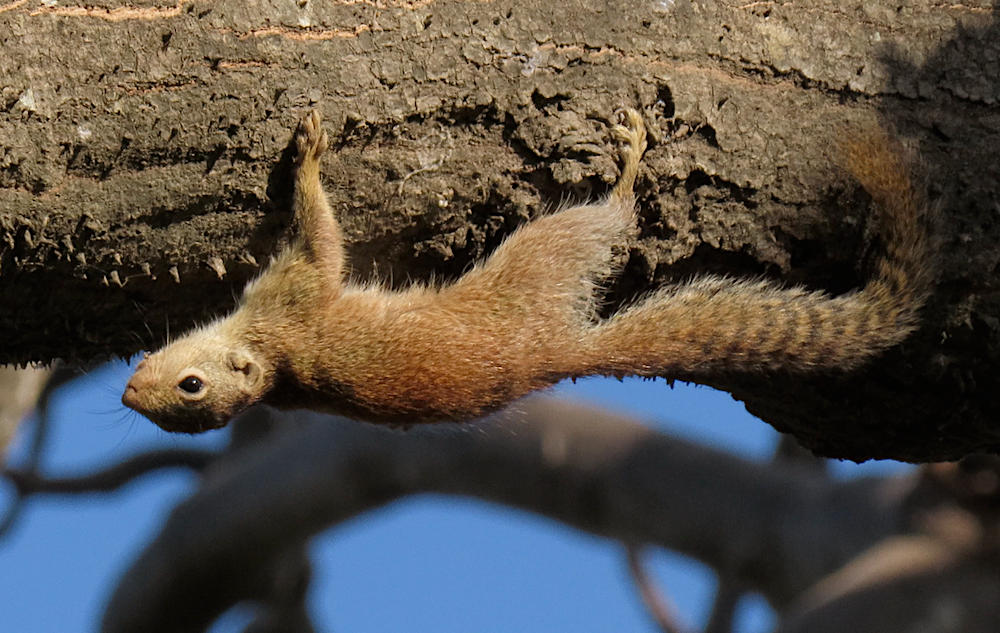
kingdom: Animalia
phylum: Chordata
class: Mammalia
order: Rodentia
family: Sciuridae
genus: Heliosciurus
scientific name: Heliosciurus gambianus
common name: Gambian sun squirrel
